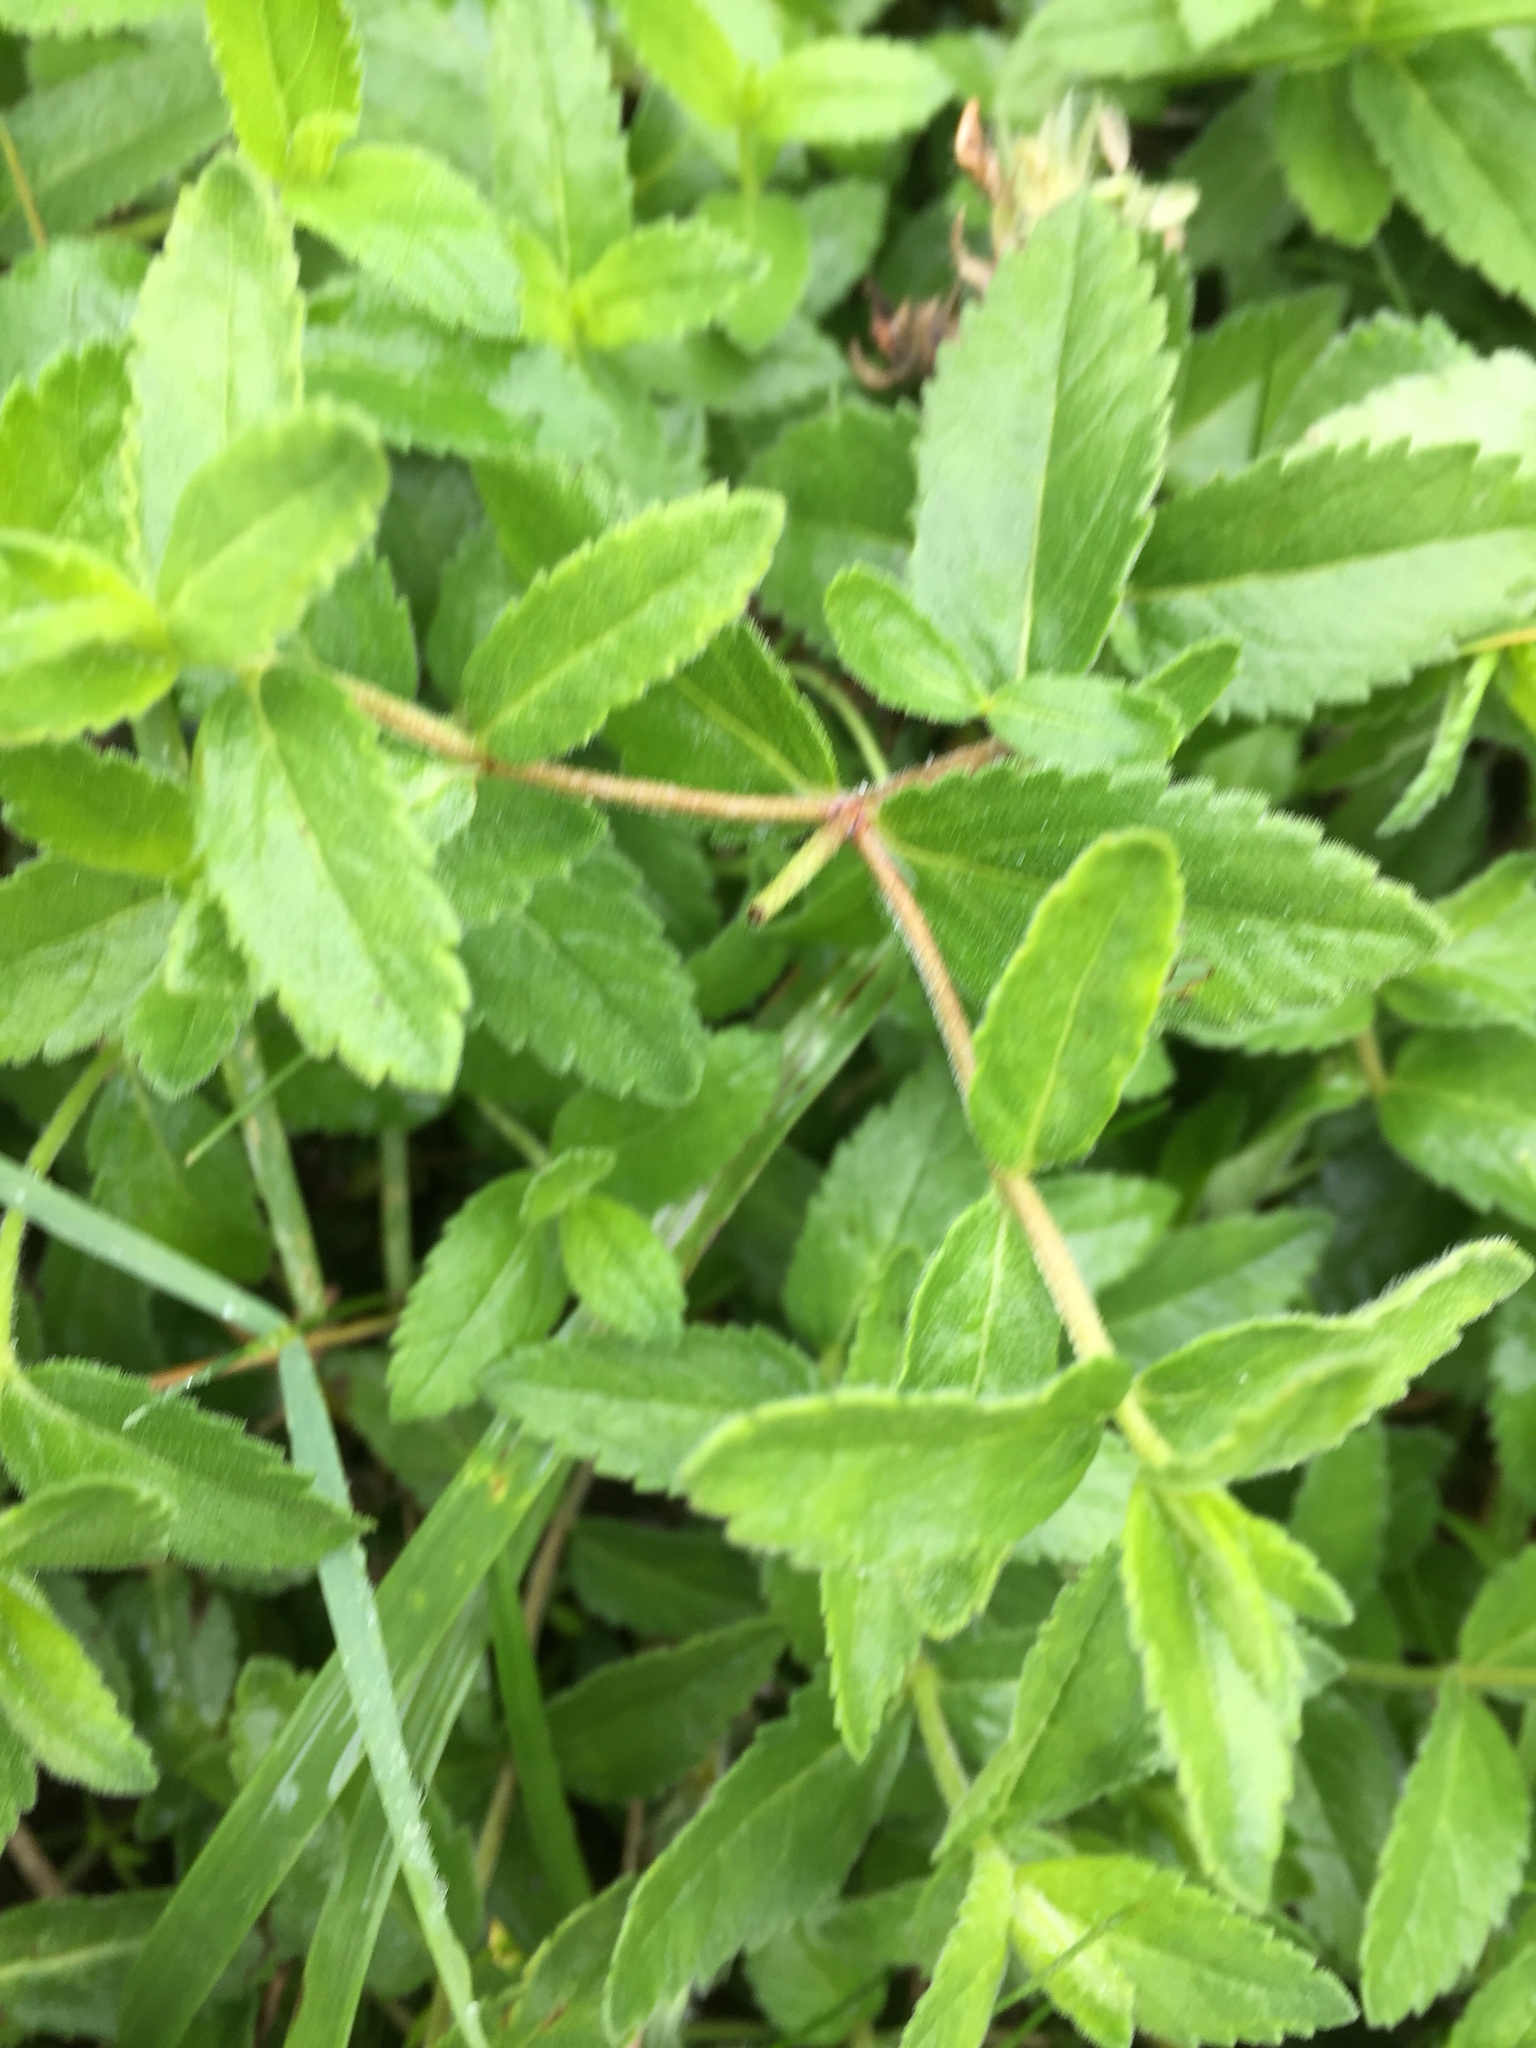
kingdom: Plantae
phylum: Tracheophyta
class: Magnoliopsida
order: Lamiales
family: Plantaginaceae
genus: Veronica
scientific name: Veronica teucrium
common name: Large speedwell
